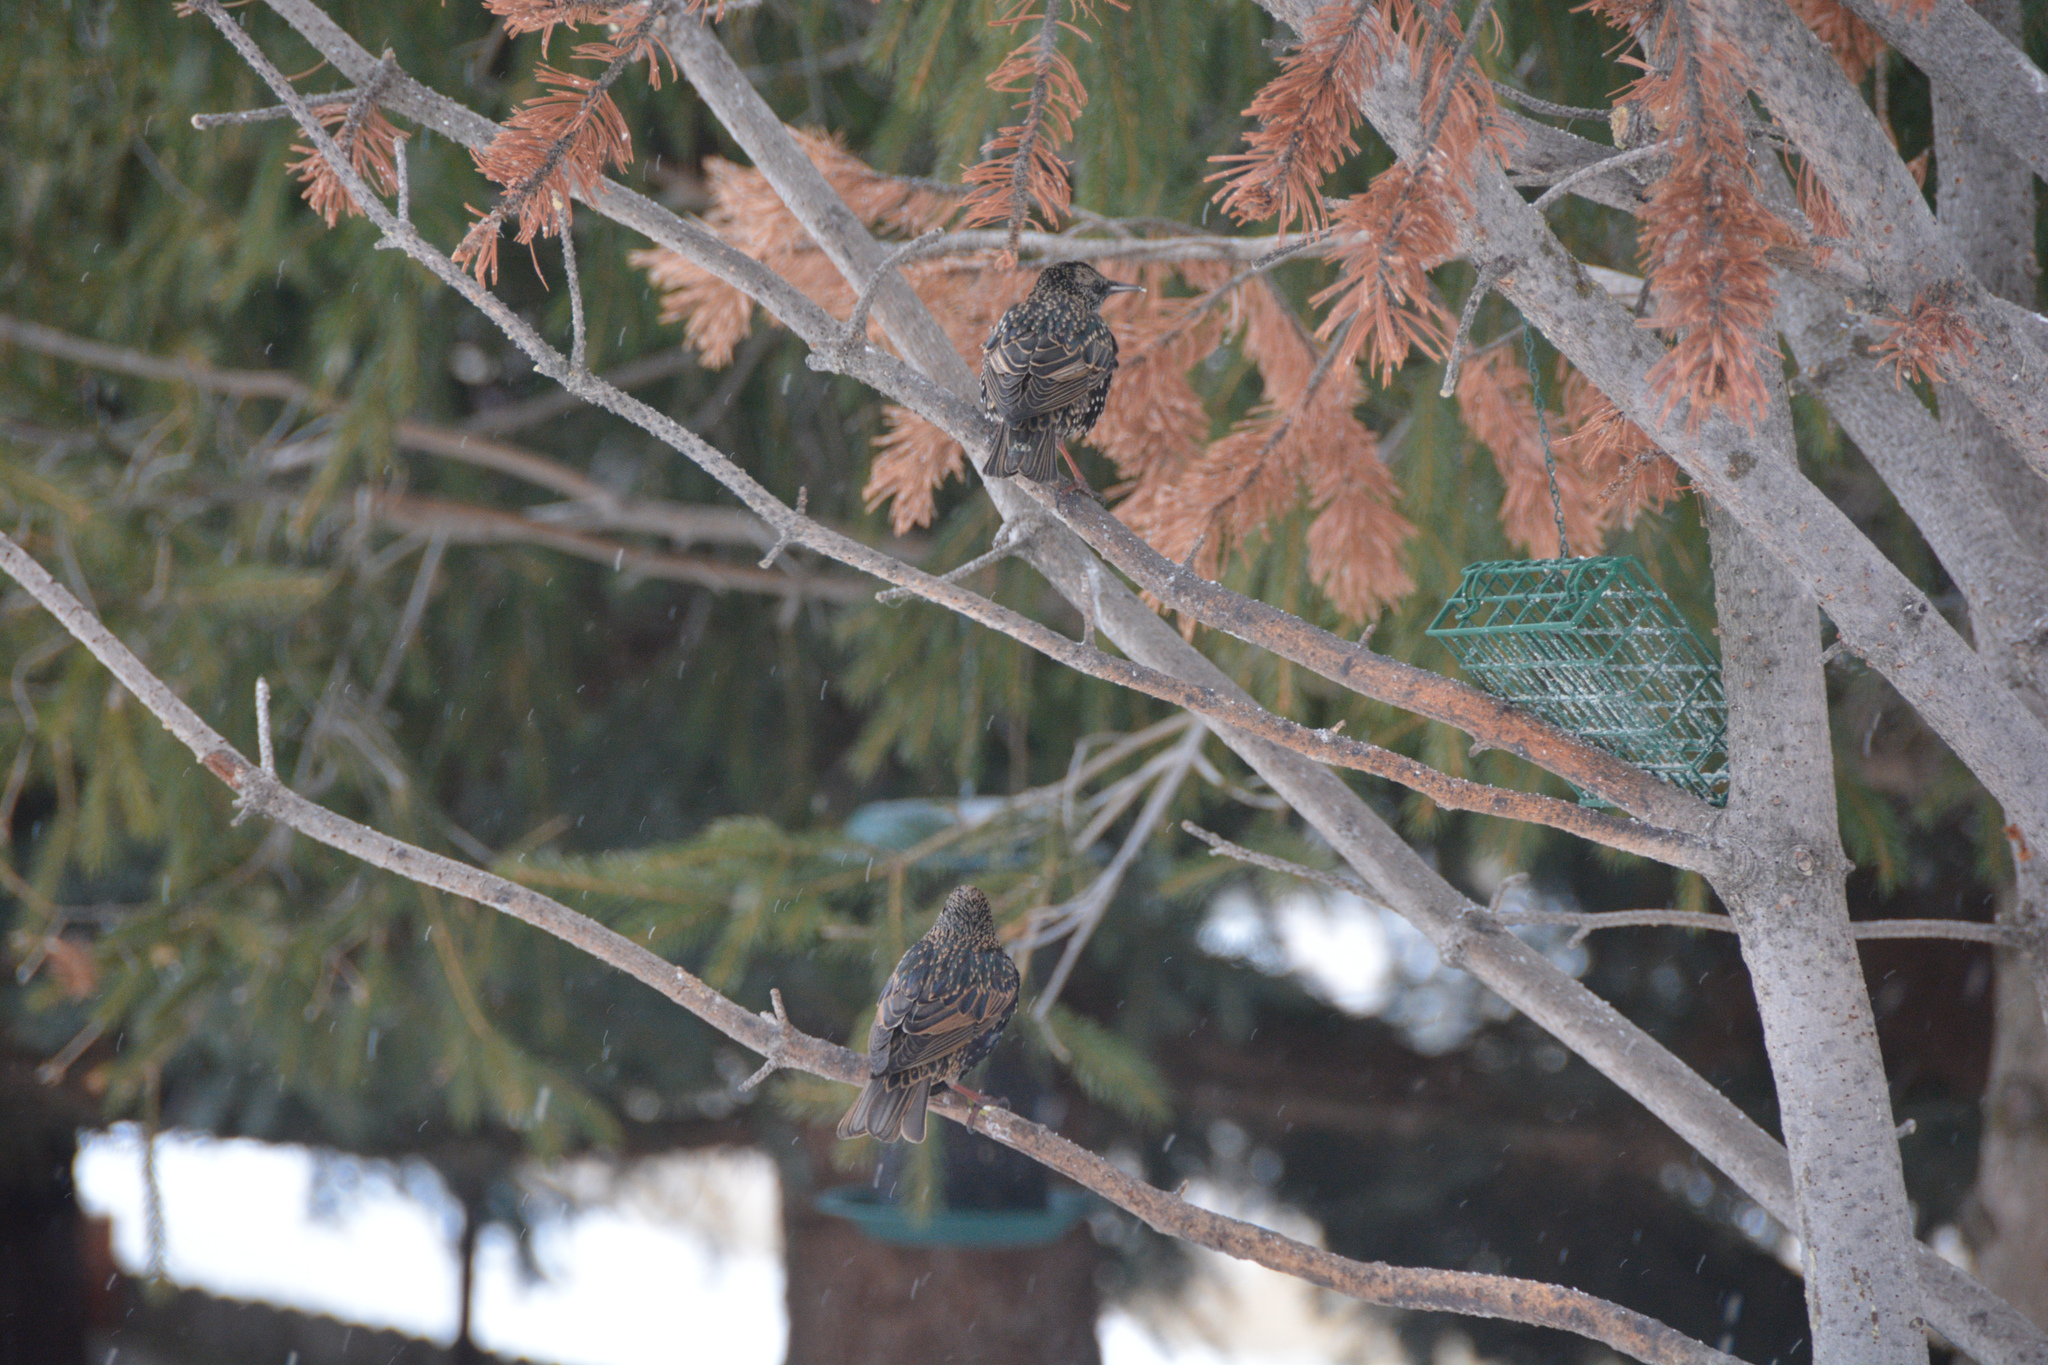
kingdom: Animalia
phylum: Chordata
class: Aves
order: Passeriformes
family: Sturnidae
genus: Sturnus
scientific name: Sturnus vulgaris
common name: Common starling
